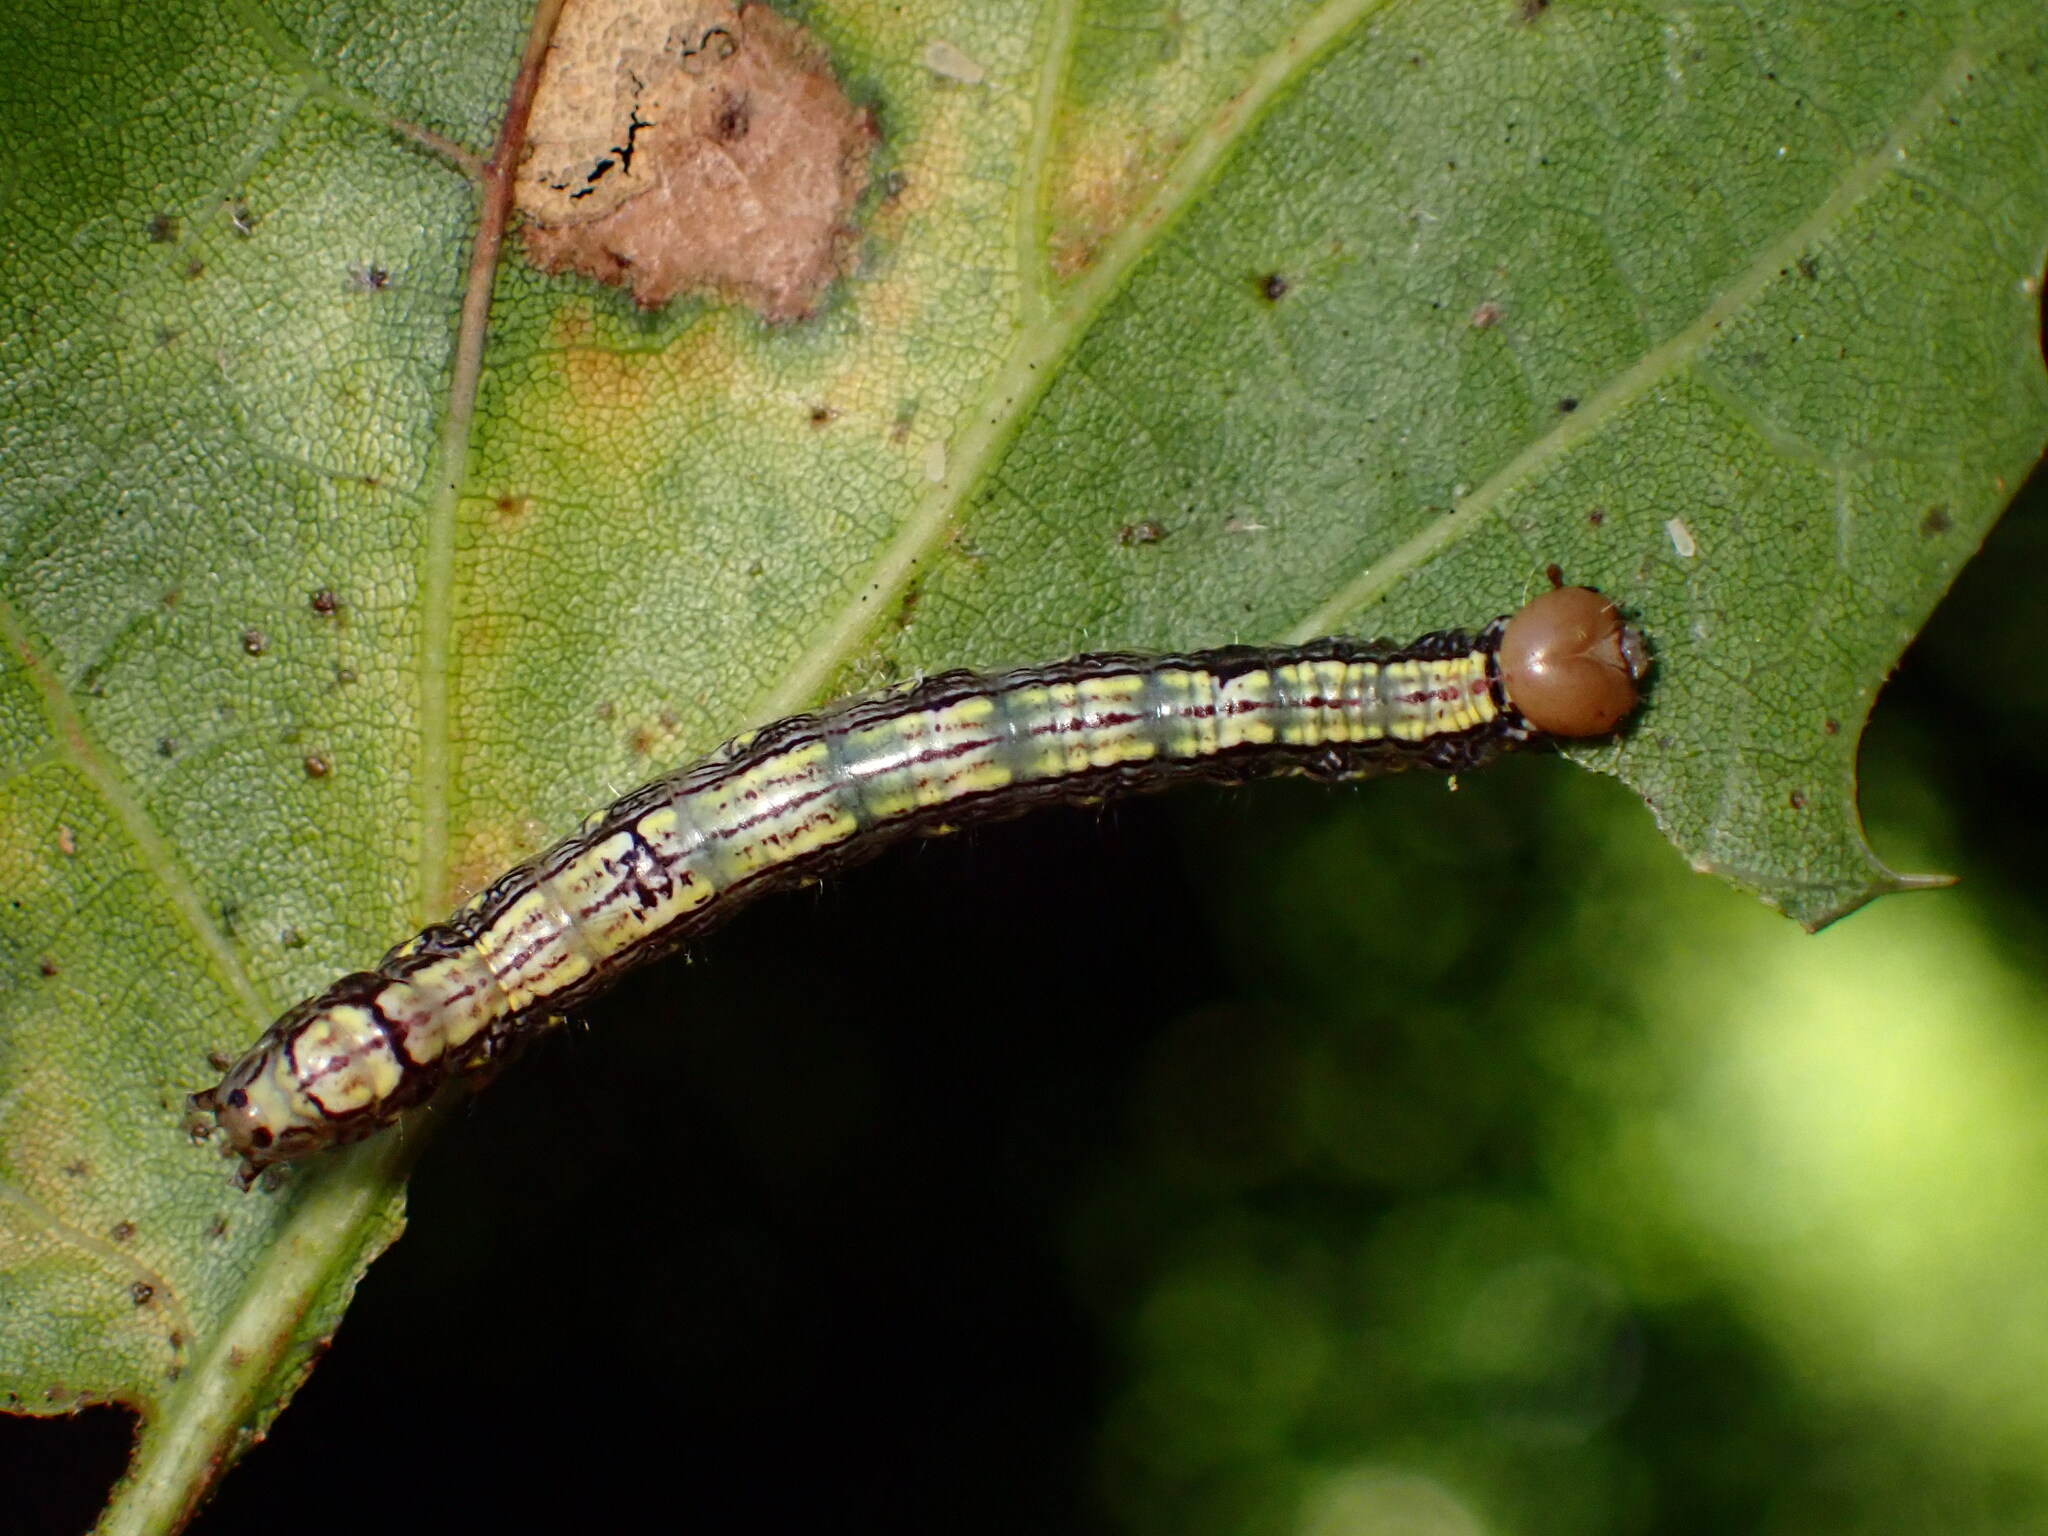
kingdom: Animalia
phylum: Arthropoda
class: Insecta
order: Lepidoptera
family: Notodontidae
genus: Phryganidia
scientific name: Phryganidia californica
